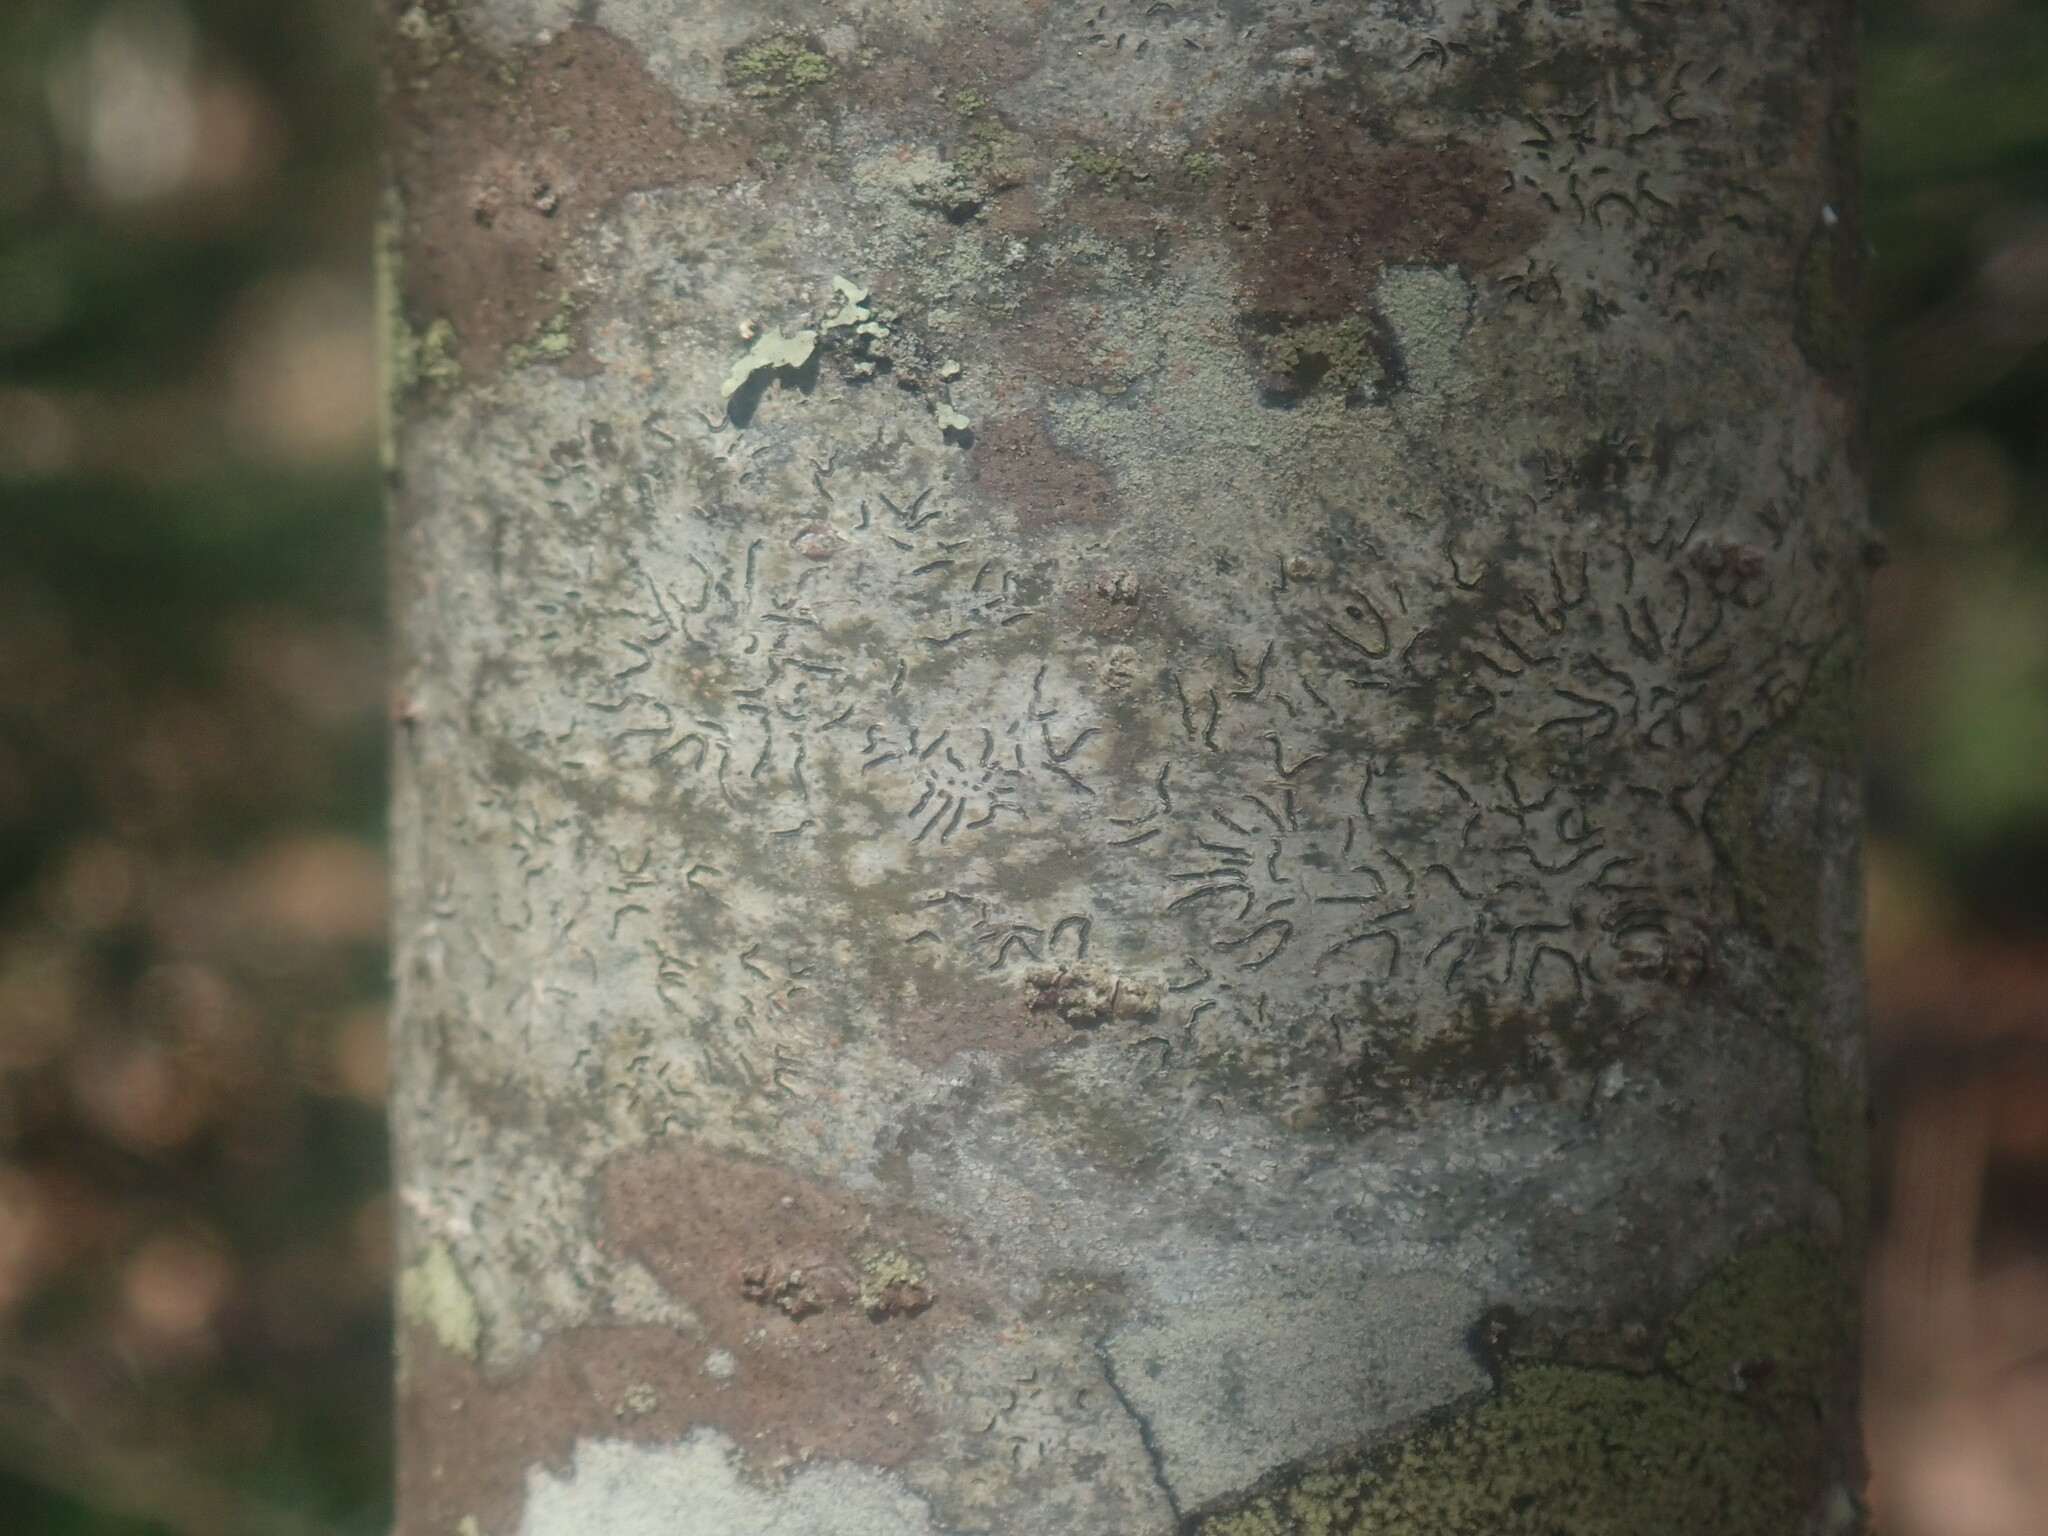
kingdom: Fungi
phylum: Ascomycota
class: Lecanoromycetes
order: Ostropales
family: Graphidaceae
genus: Graphis
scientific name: Graphis scripta
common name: Script lichen
